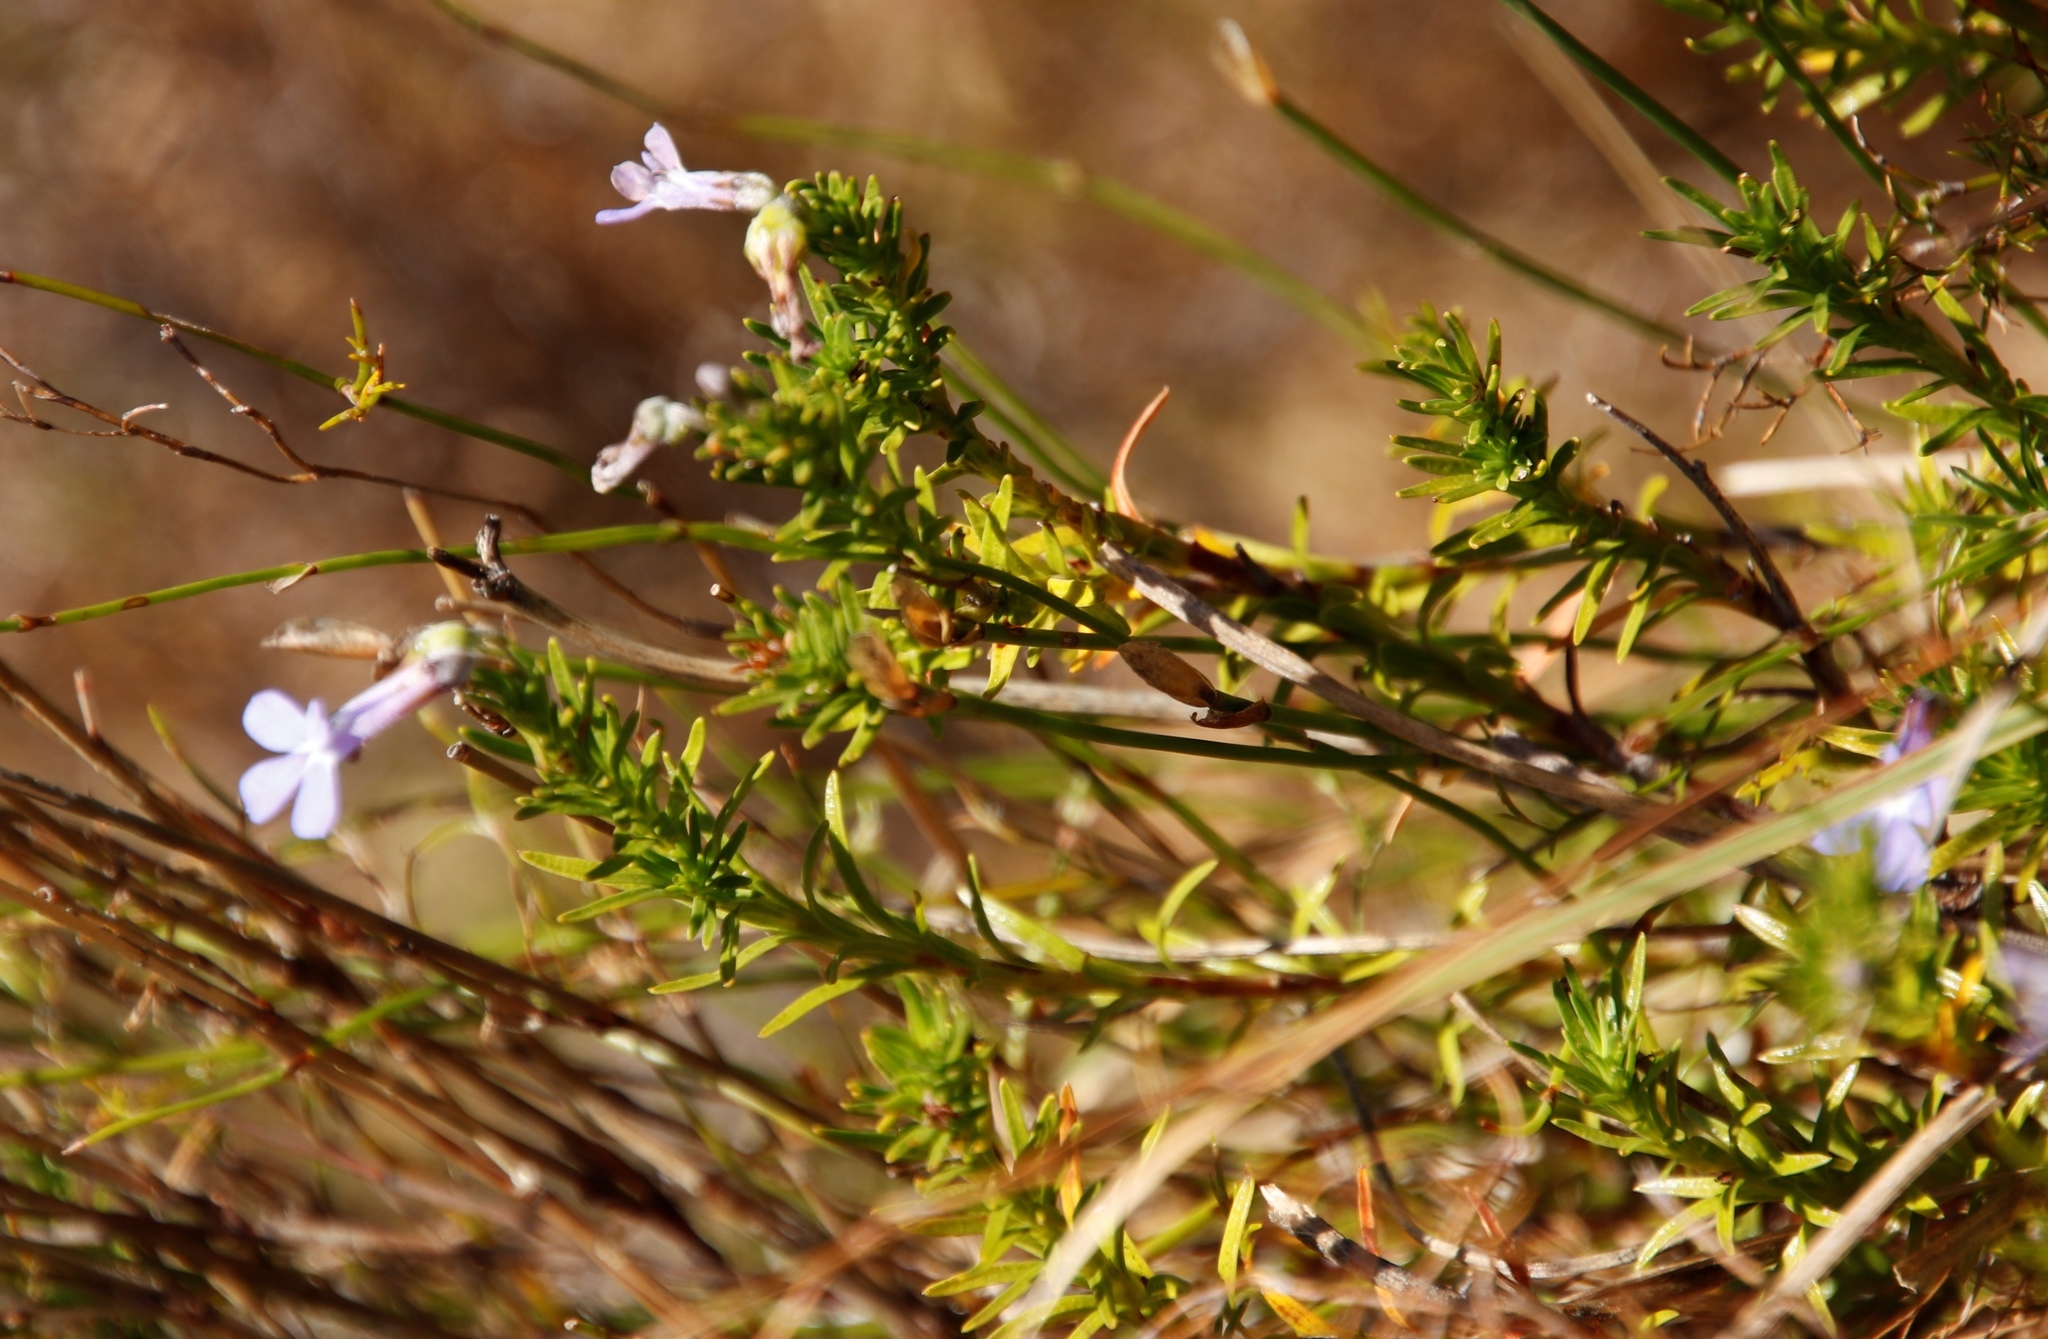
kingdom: Plantae
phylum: Tracheophyta
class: Magnoliopsida
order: Asterales
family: Campanulaceae
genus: Lobelia
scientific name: Lobelia pinifolia
